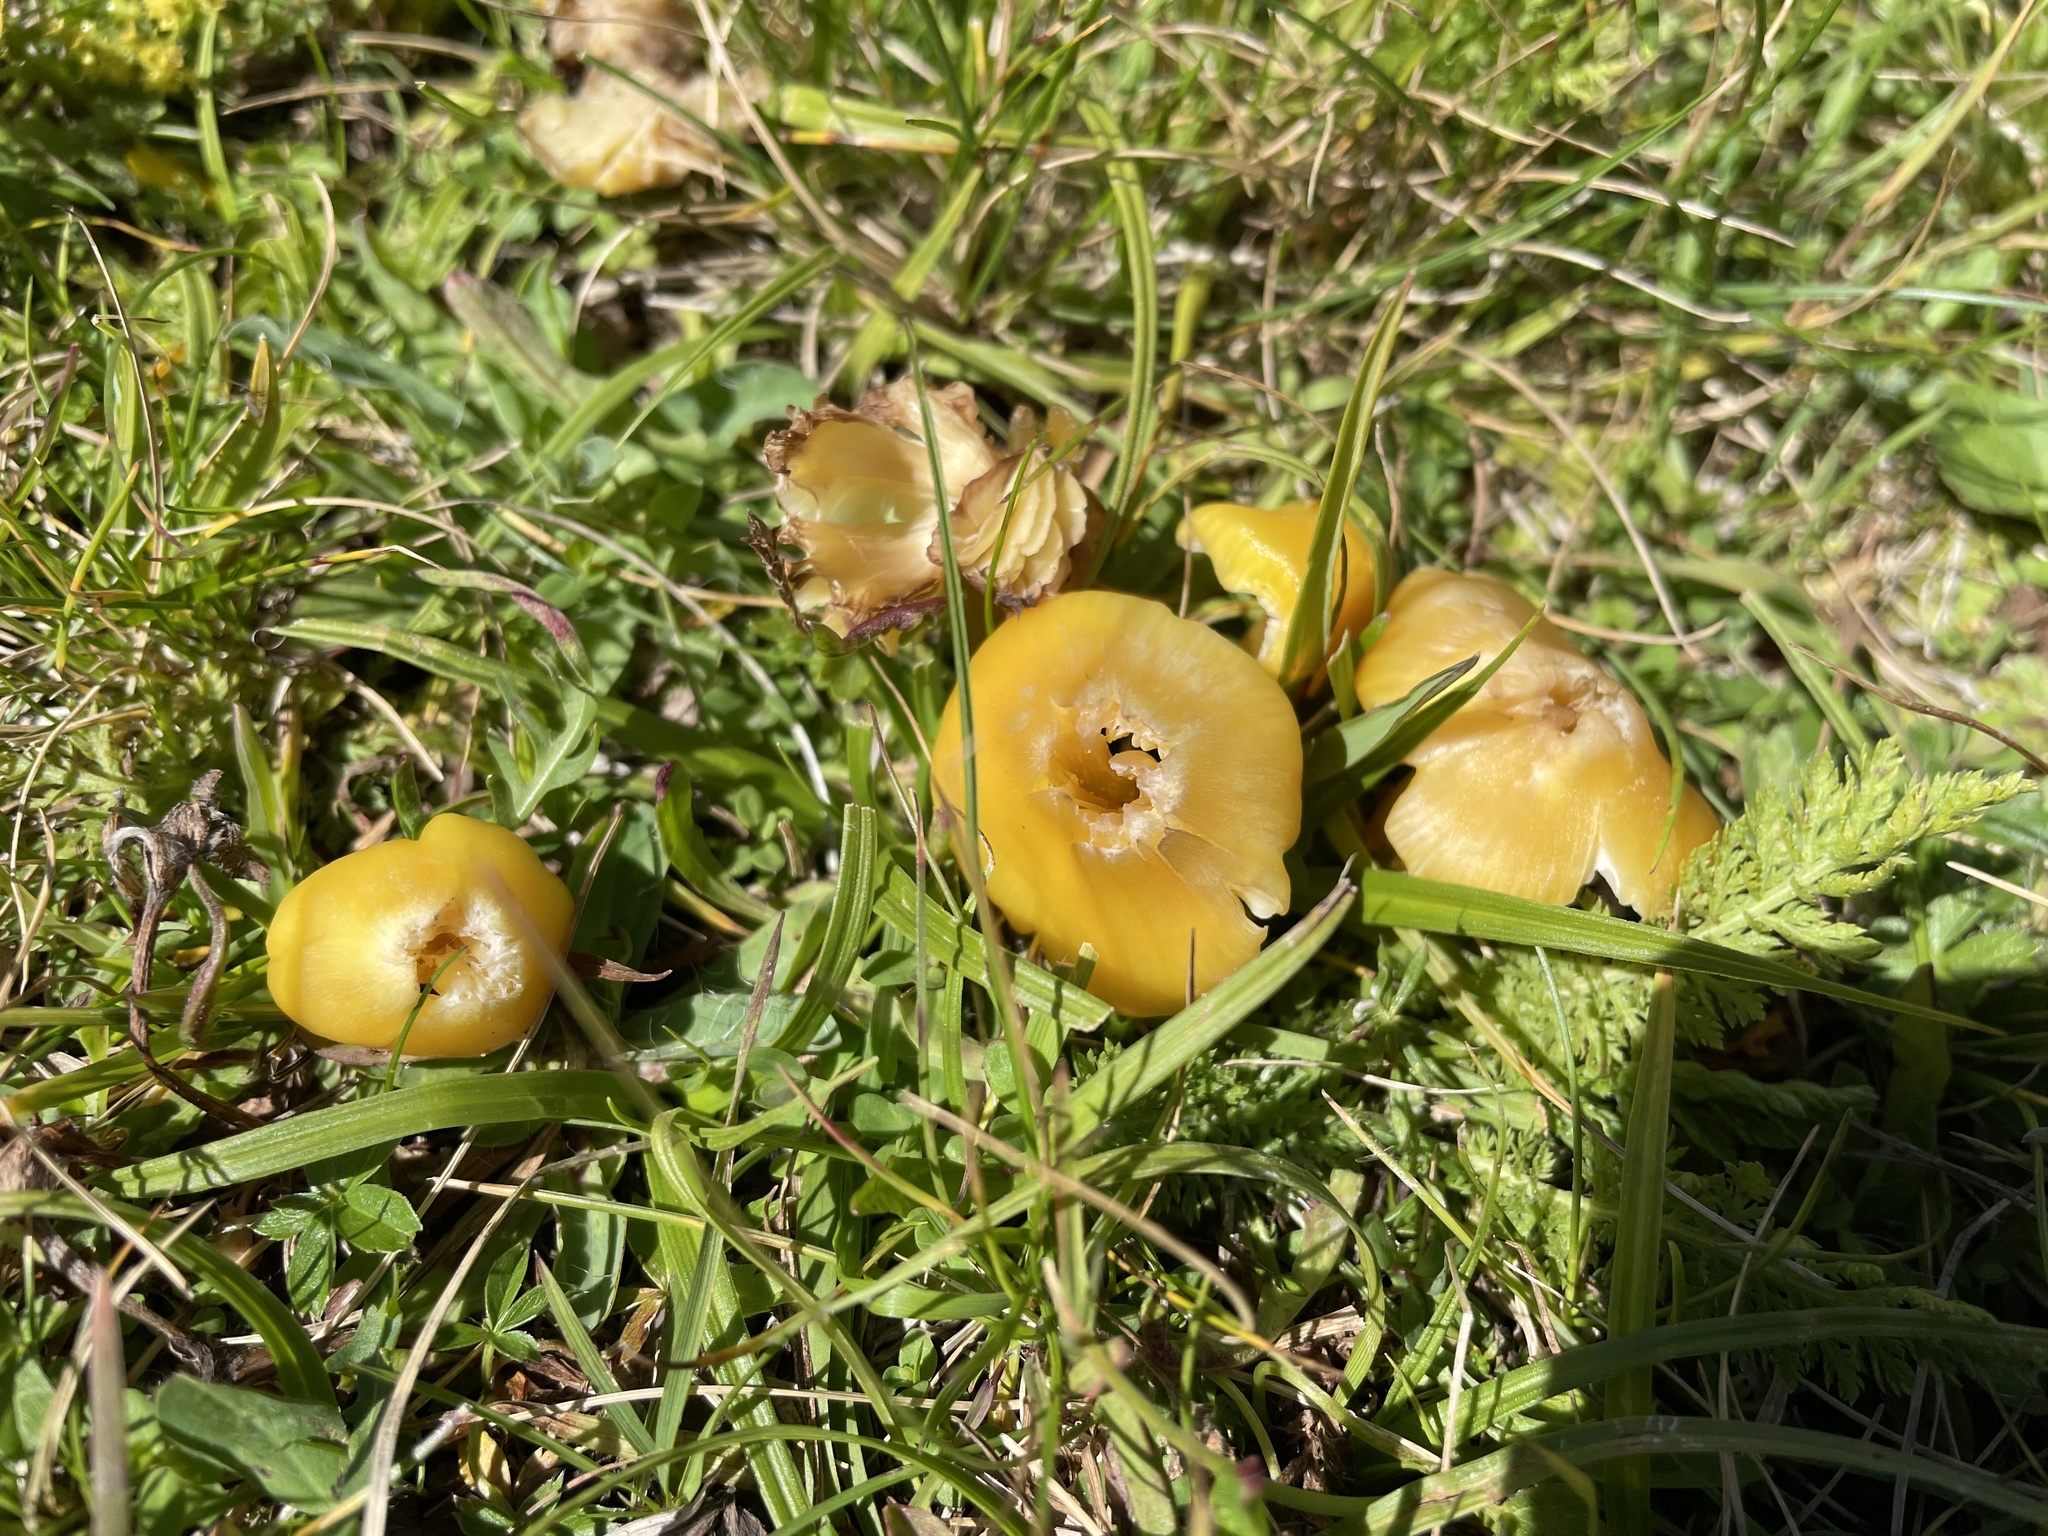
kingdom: Fungi
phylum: Basidiomycota
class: Agaricomycetes
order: Agaricales
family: Hygrophoraceae
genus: Hygrocybe
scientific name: Hygrocybe acutoconica
